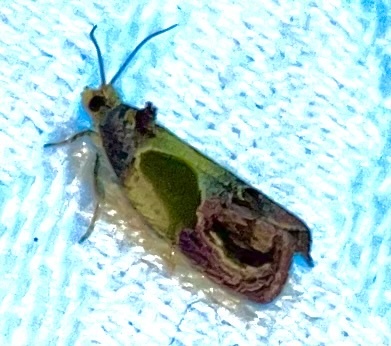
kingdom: Animalia
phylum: Arthropoda
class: Insecta
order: Lepidoptera
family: Tortricidae
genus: Eumarozia
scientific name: Eumarozia malachitana
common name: Sculptured moth
